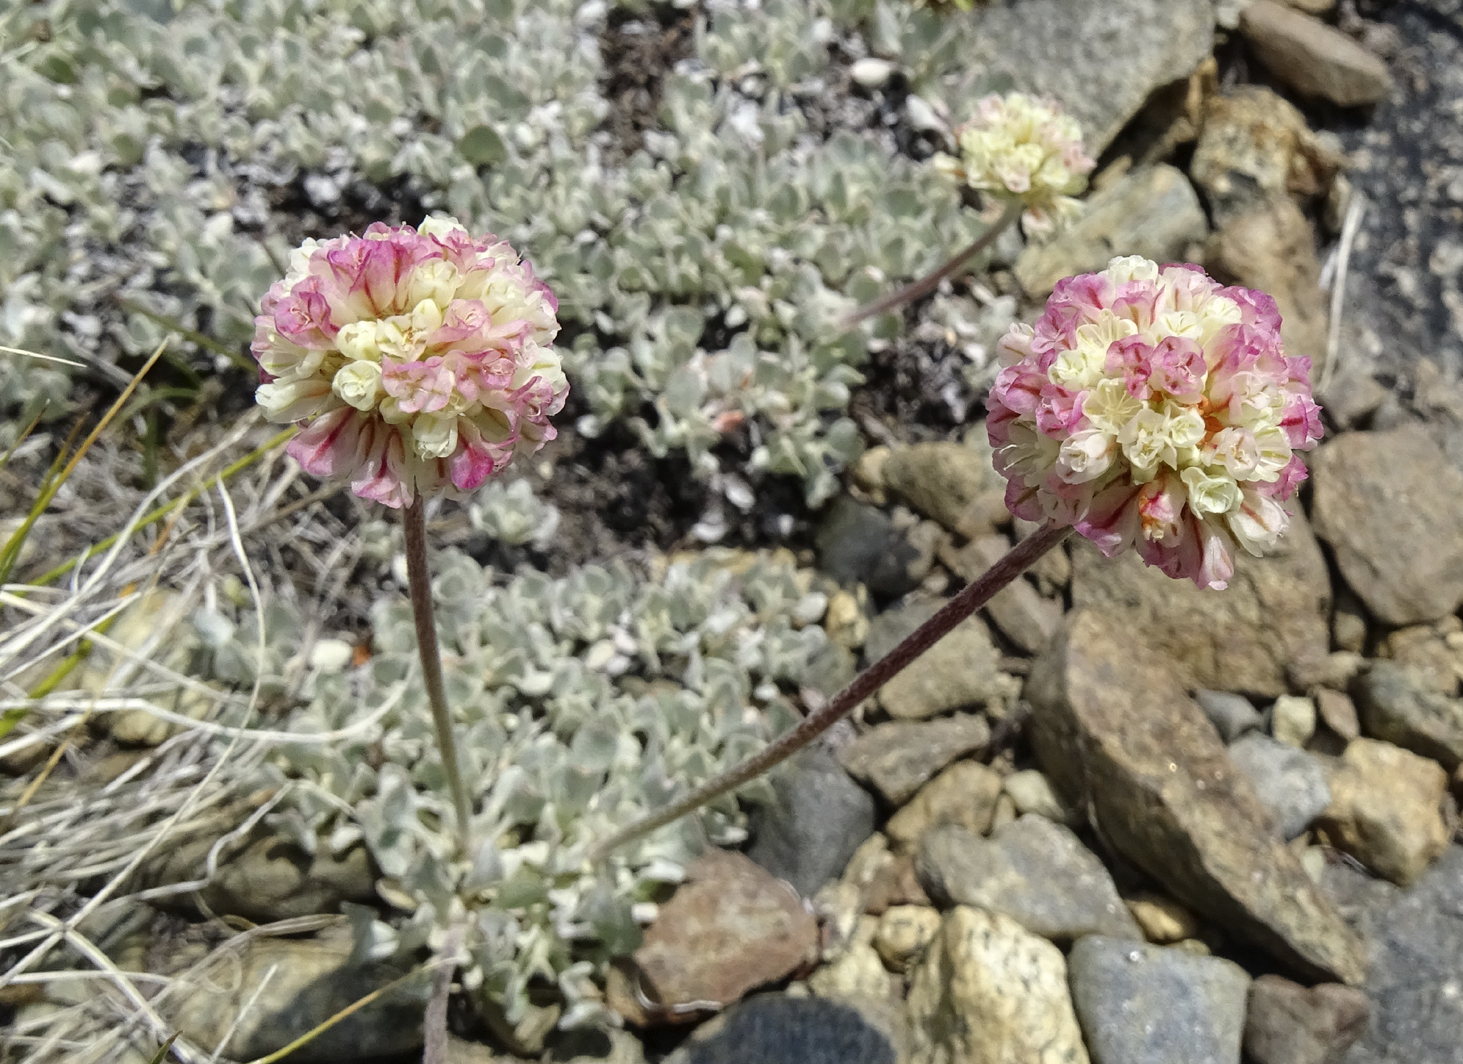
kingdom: Plantae
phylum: Tracheophyta
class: Magnoliopsida
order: Caryophyllales
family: Polygonaceae
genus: Eriogonum
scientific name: Eriogonum ovalifolium
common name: Cushion buckwheat
